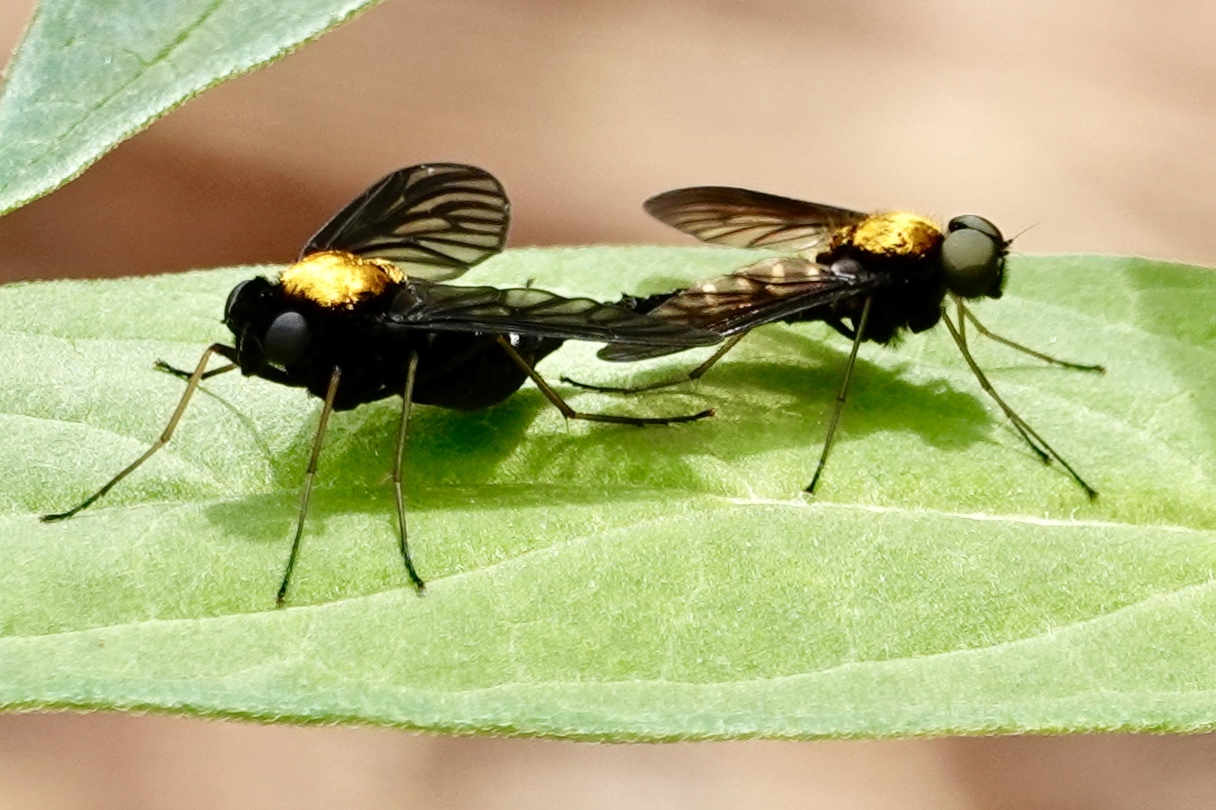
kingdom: Animalia
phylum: Arthropoda
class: Insecta
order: Diptera
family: Rhagionidae
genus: Chrysopilus
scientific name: Chrysopilus thoracicus
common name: Golden-backed snipe fly
